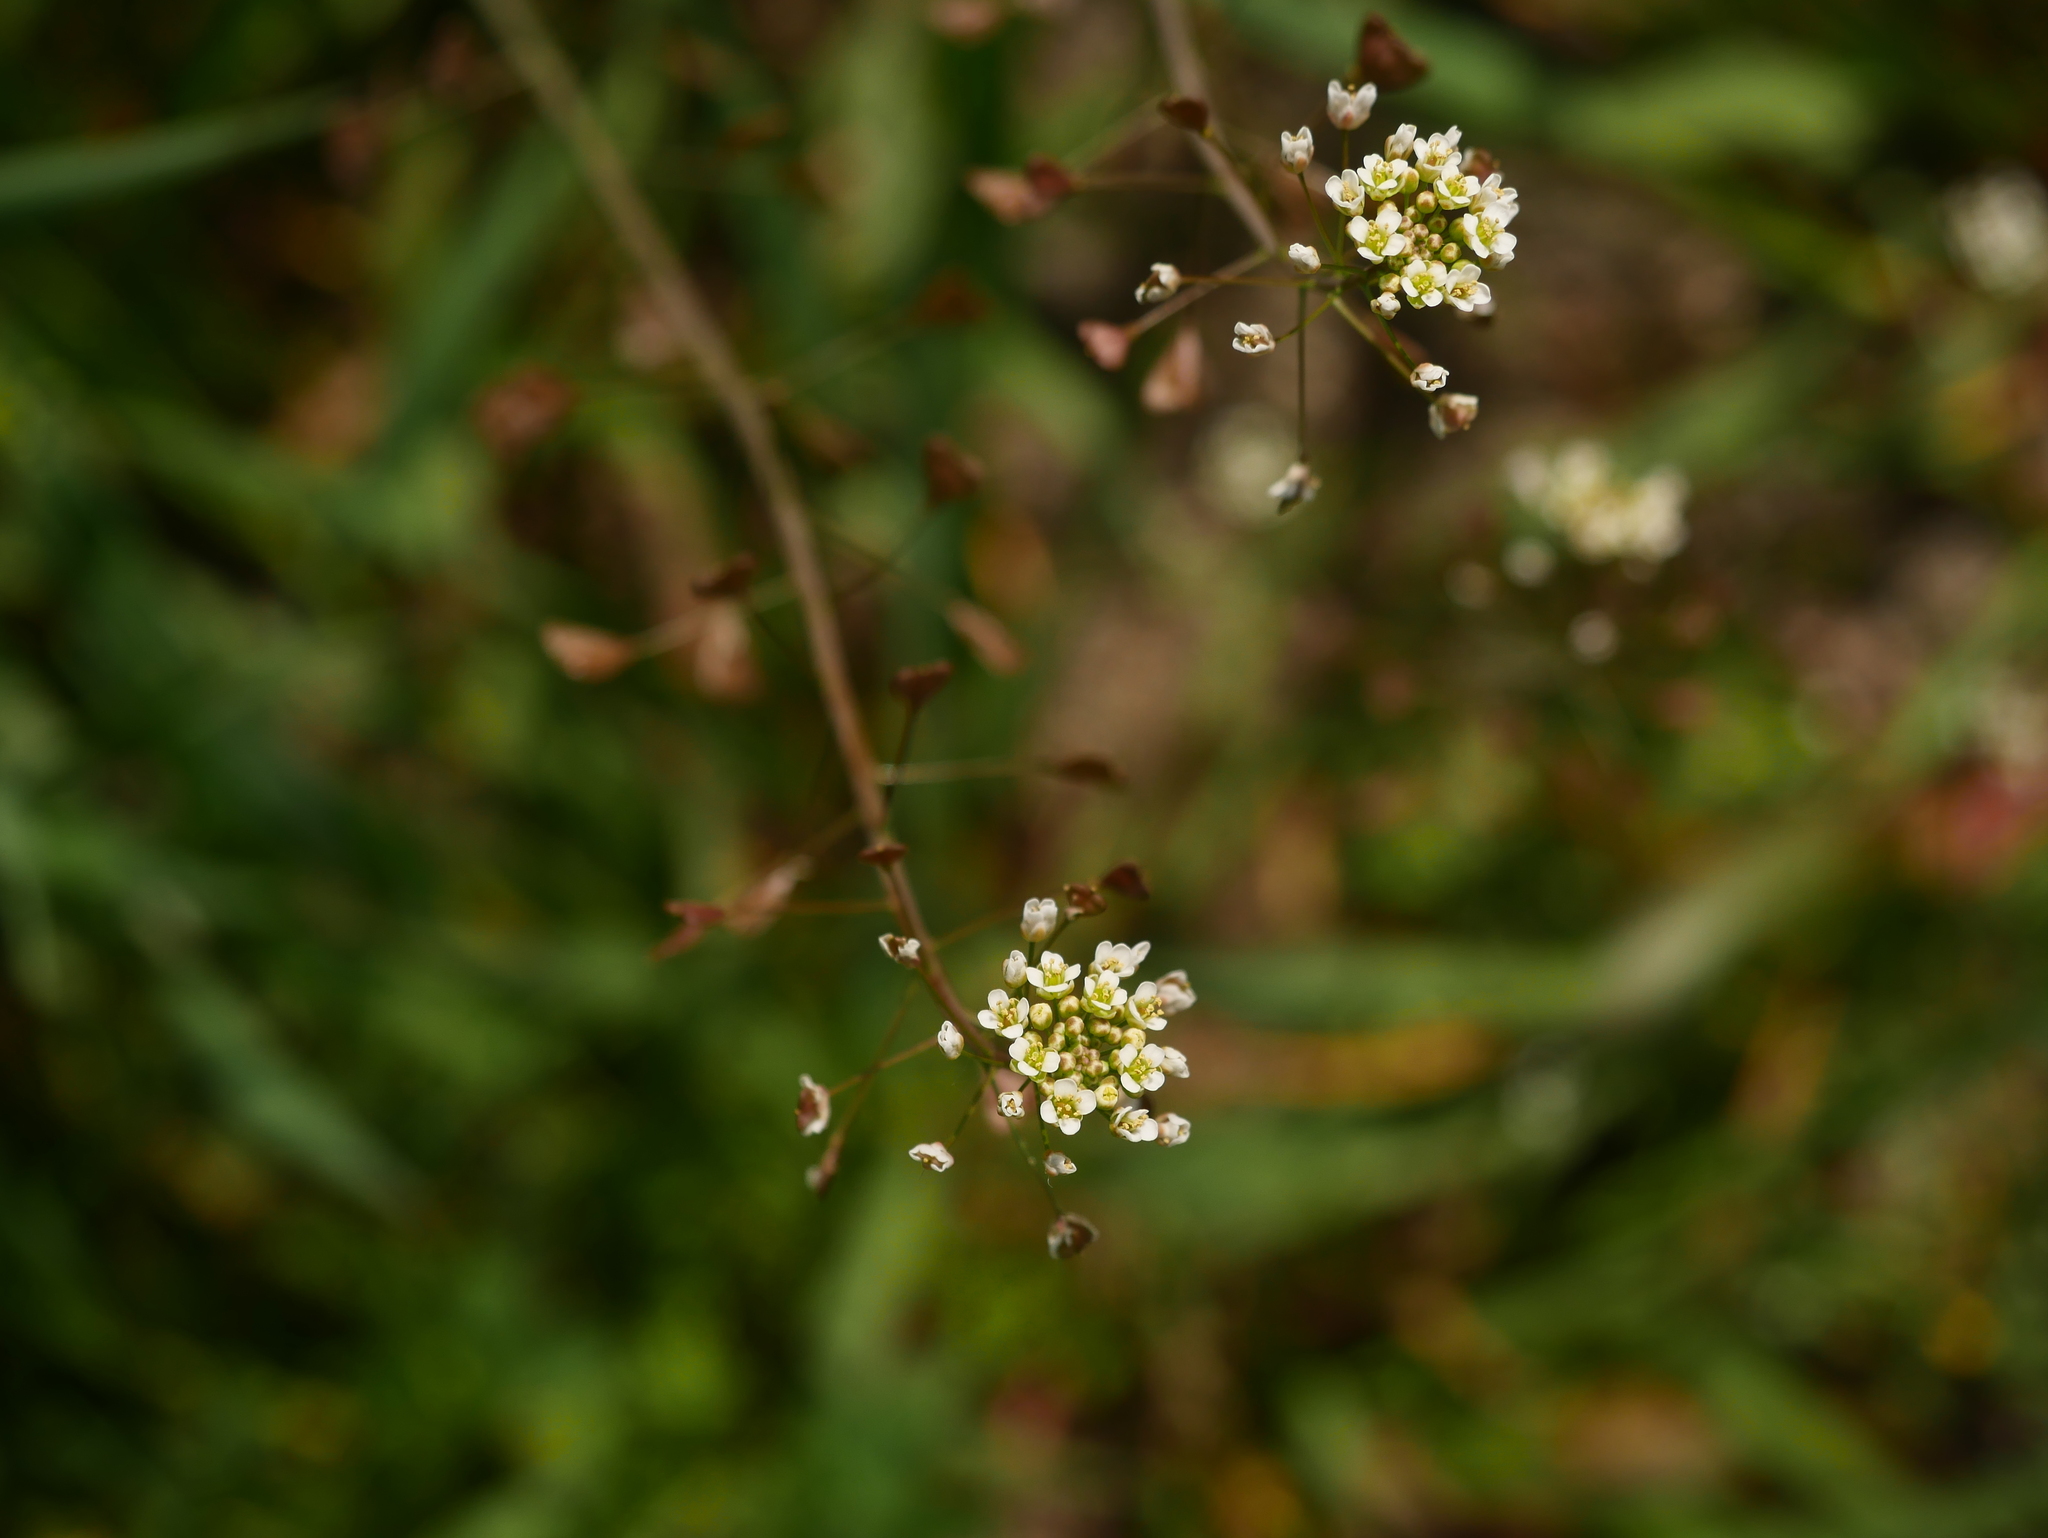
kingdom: Plantae
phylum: Tracheophyta
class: Magnoliopsida
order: Brassicales
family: Brassicaceae
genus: Capsella
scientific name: Capsella bursa-pastoris
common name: Shepherd's purse
